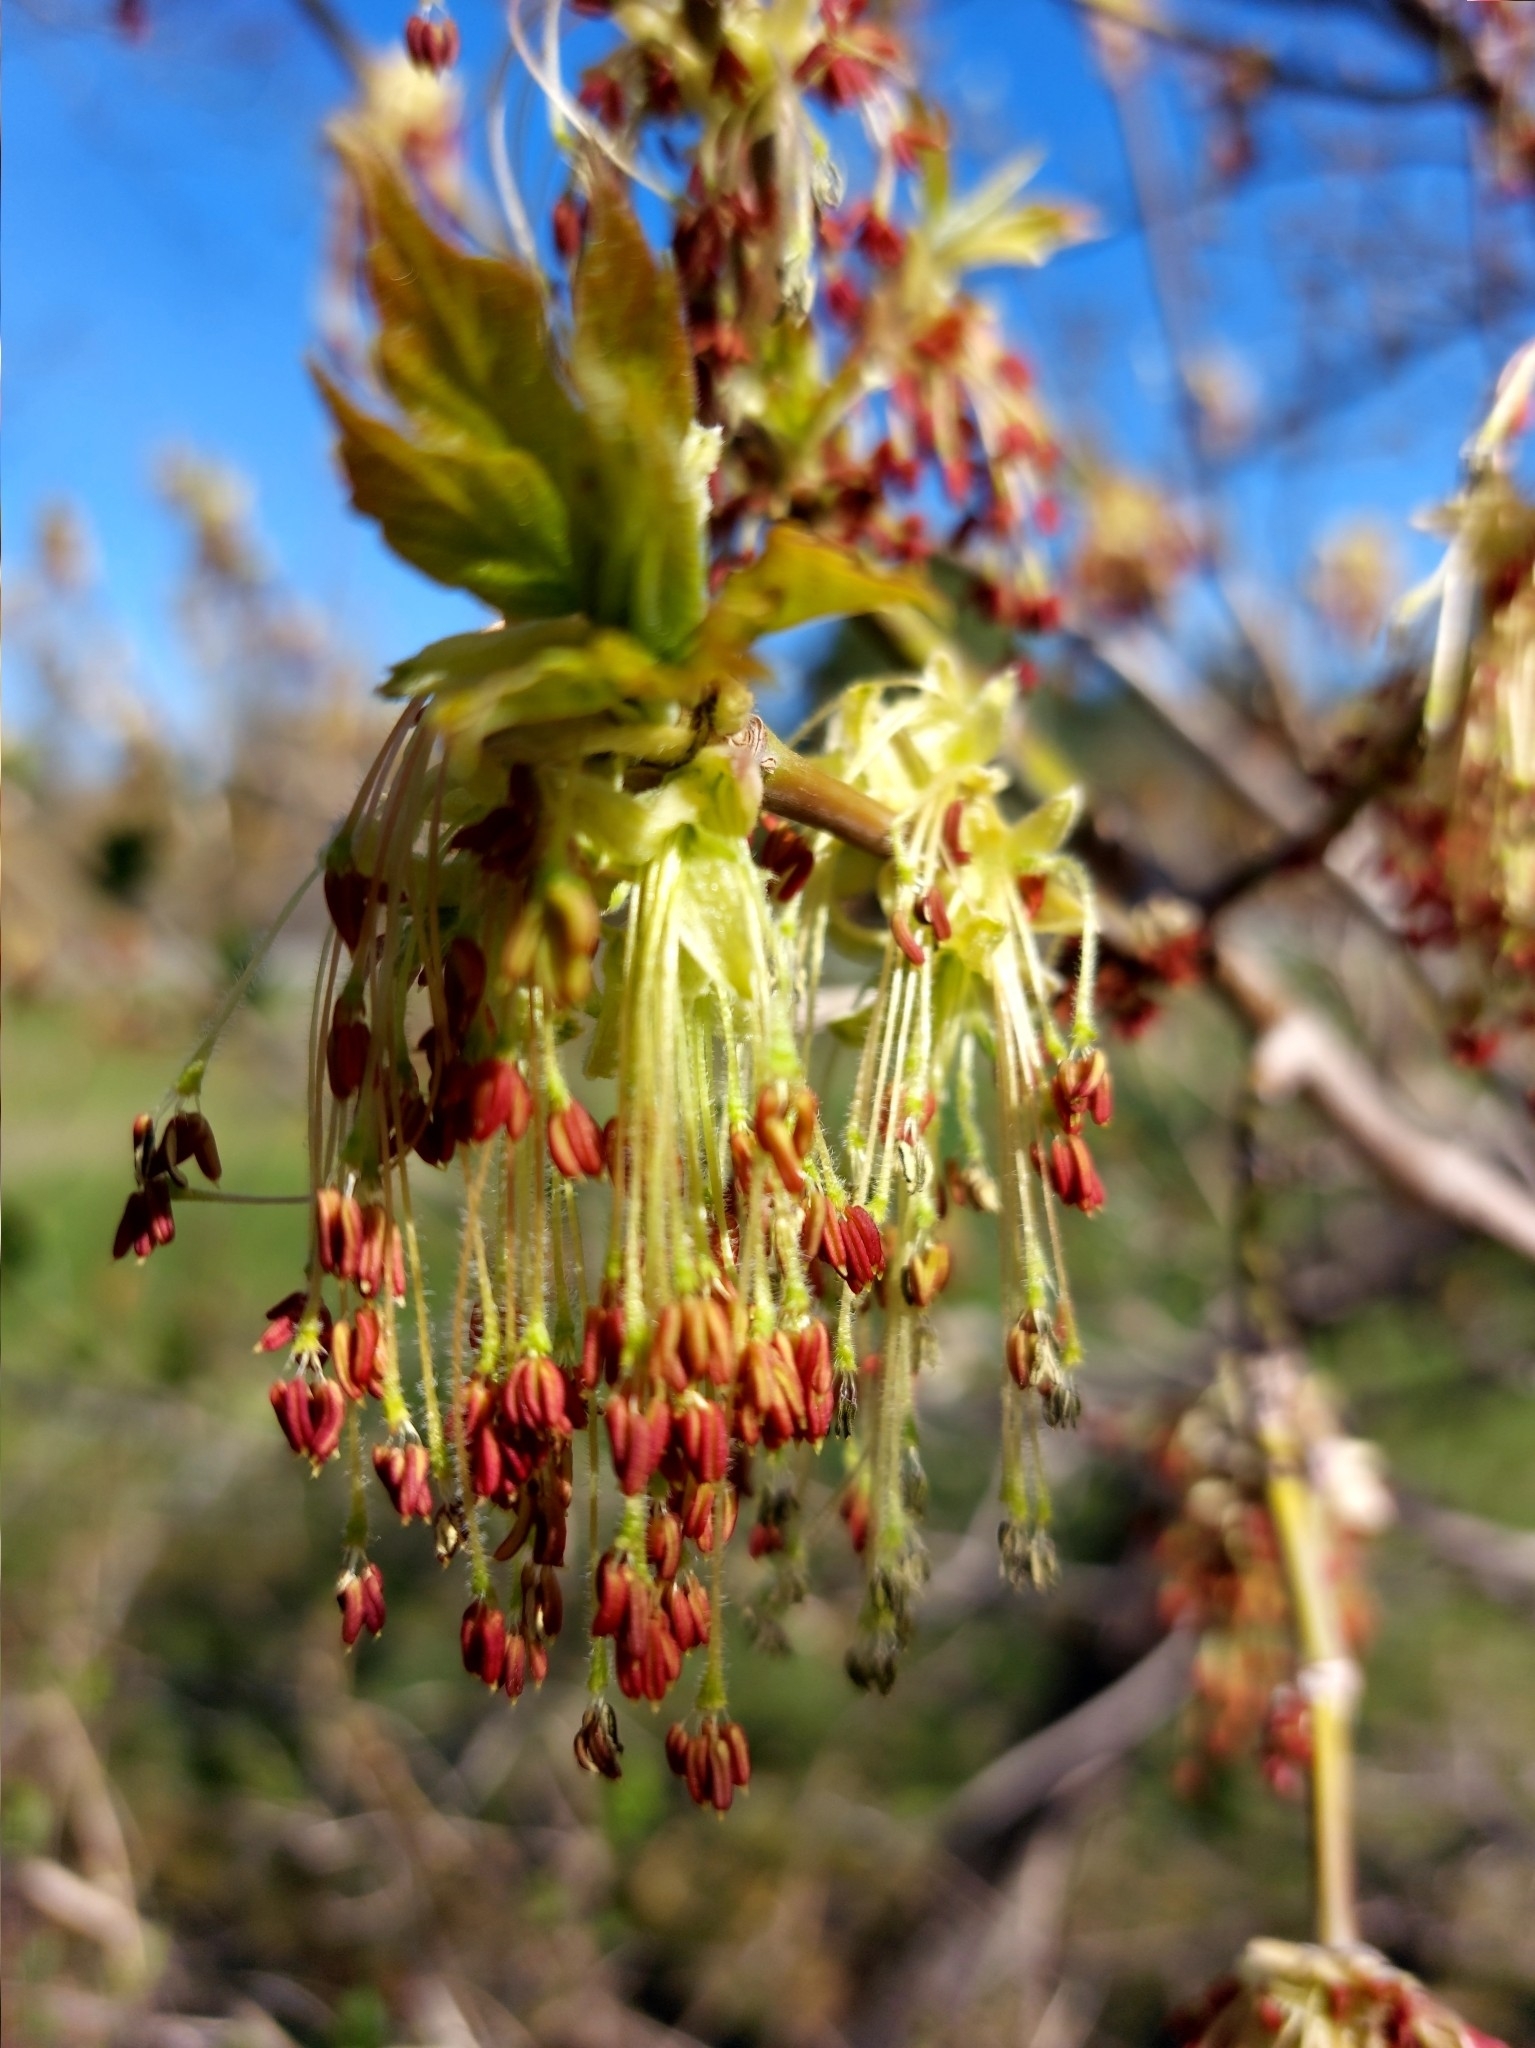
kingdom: Plantae
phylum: Tracheophyta
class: Magnoliopsida
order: Sapindales
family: Sapindaceae
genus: Acer
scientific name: Acer negundo
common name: Ashleaf maple
